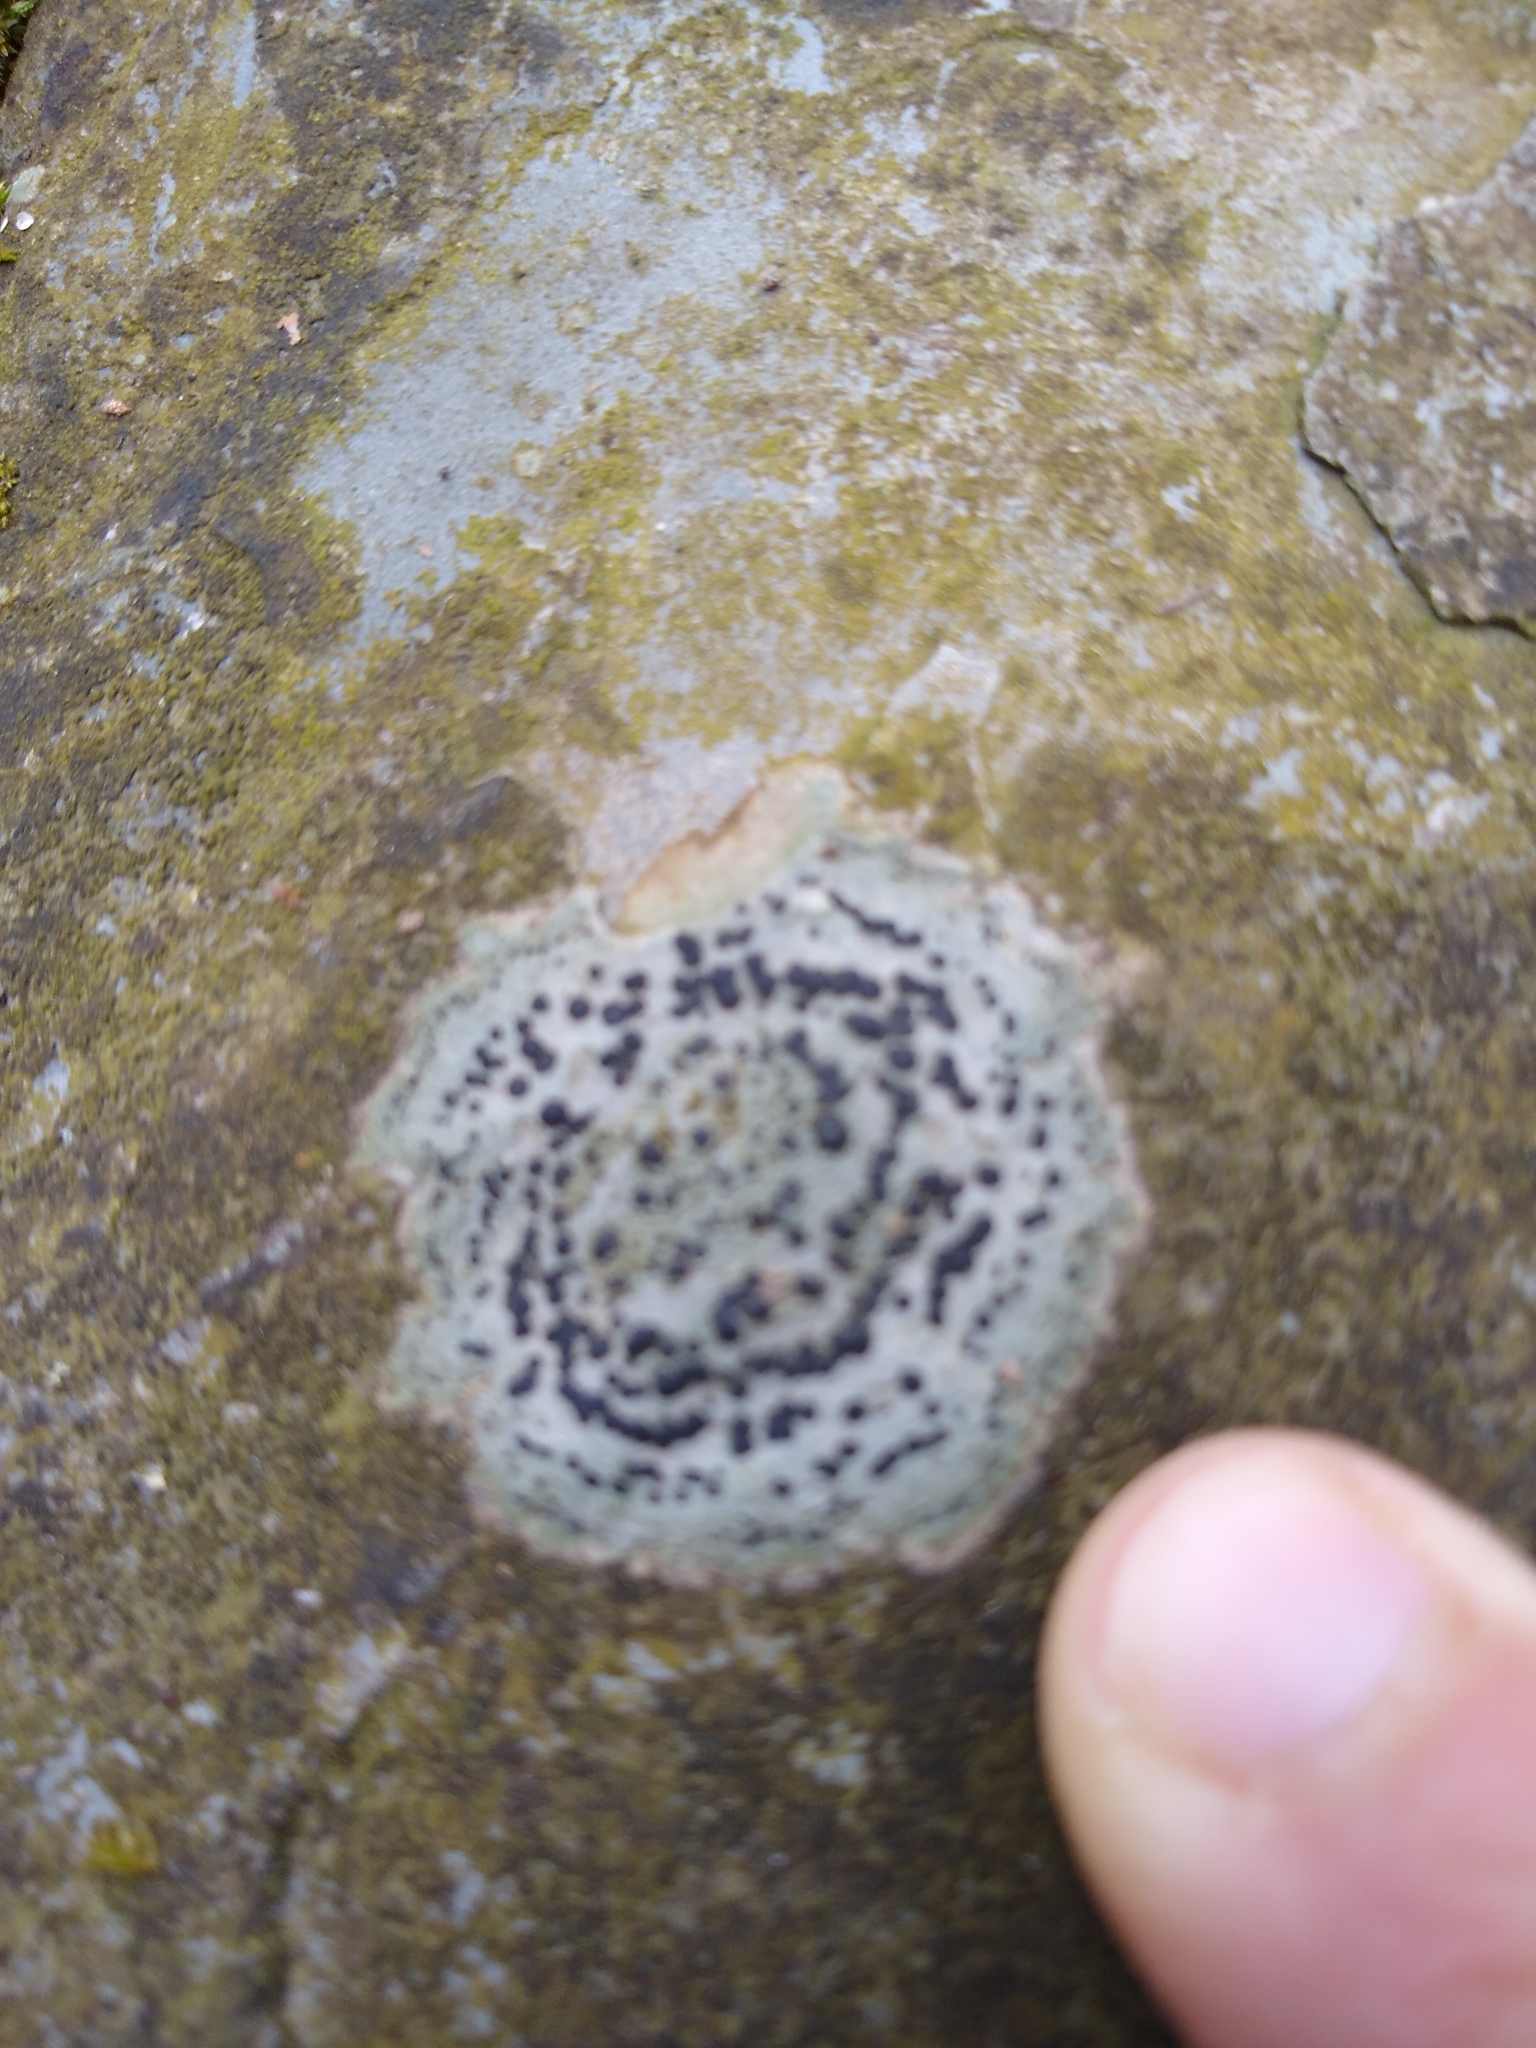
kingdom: Fungi
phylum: Ascomycota
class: Lecanoromycetes
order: Lecideales
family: Lecideaceae
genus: Porpidia
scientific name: Porpidia crustulata
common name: Concentric boulder lichen
